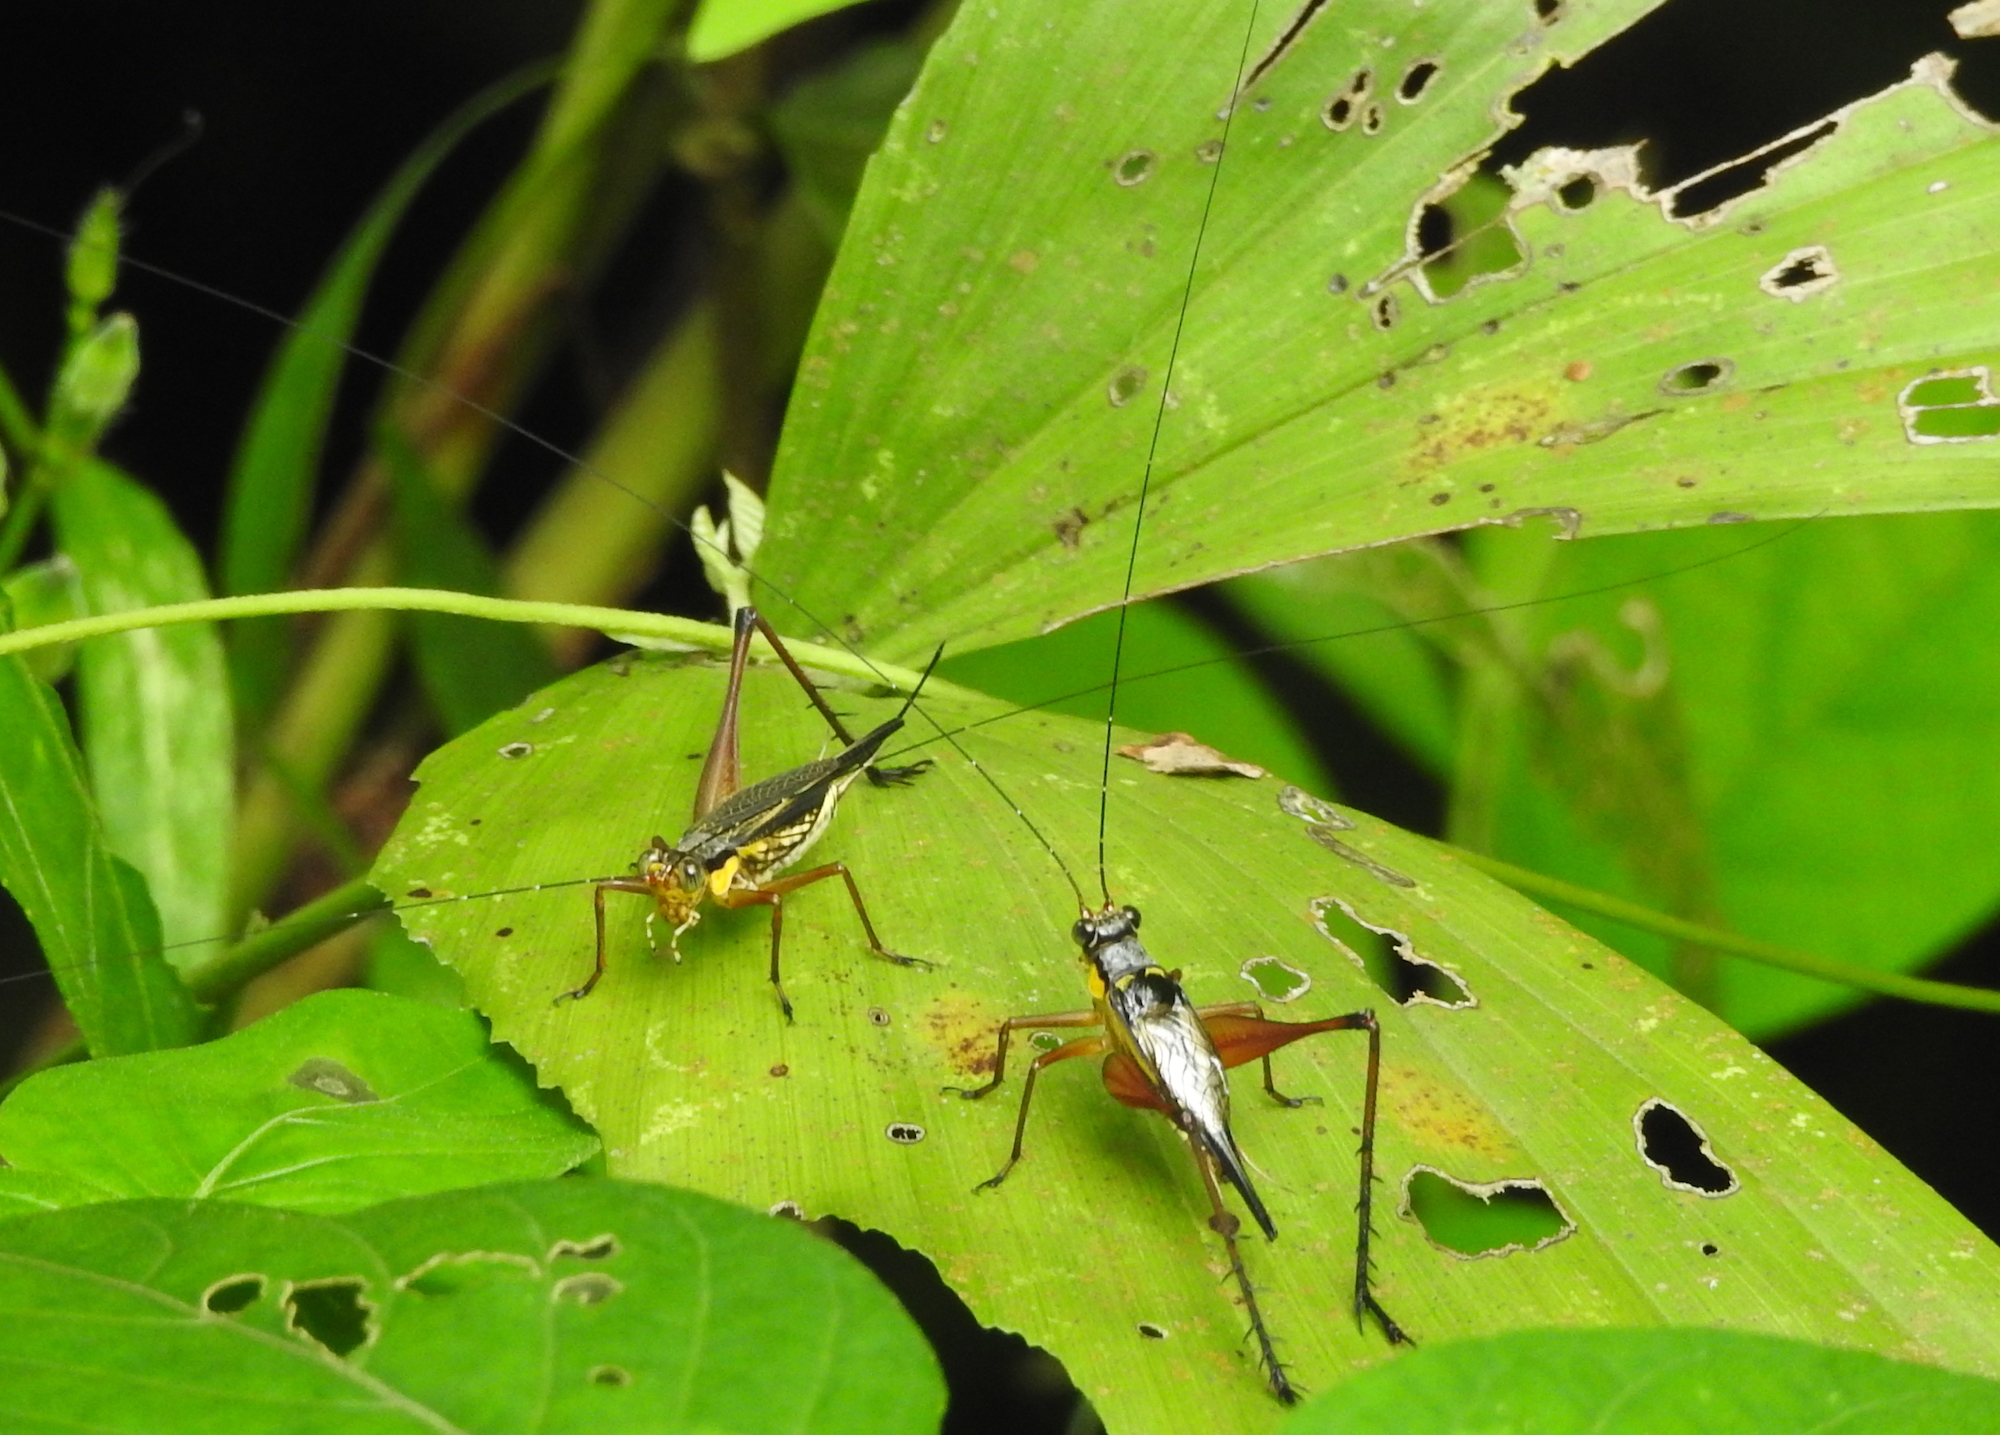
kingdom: Animalia
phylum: Arthropoda
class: Insecta
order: Orthoptera
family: Gryllidae
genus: Nisitrus
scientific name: Nisitrus malaya
